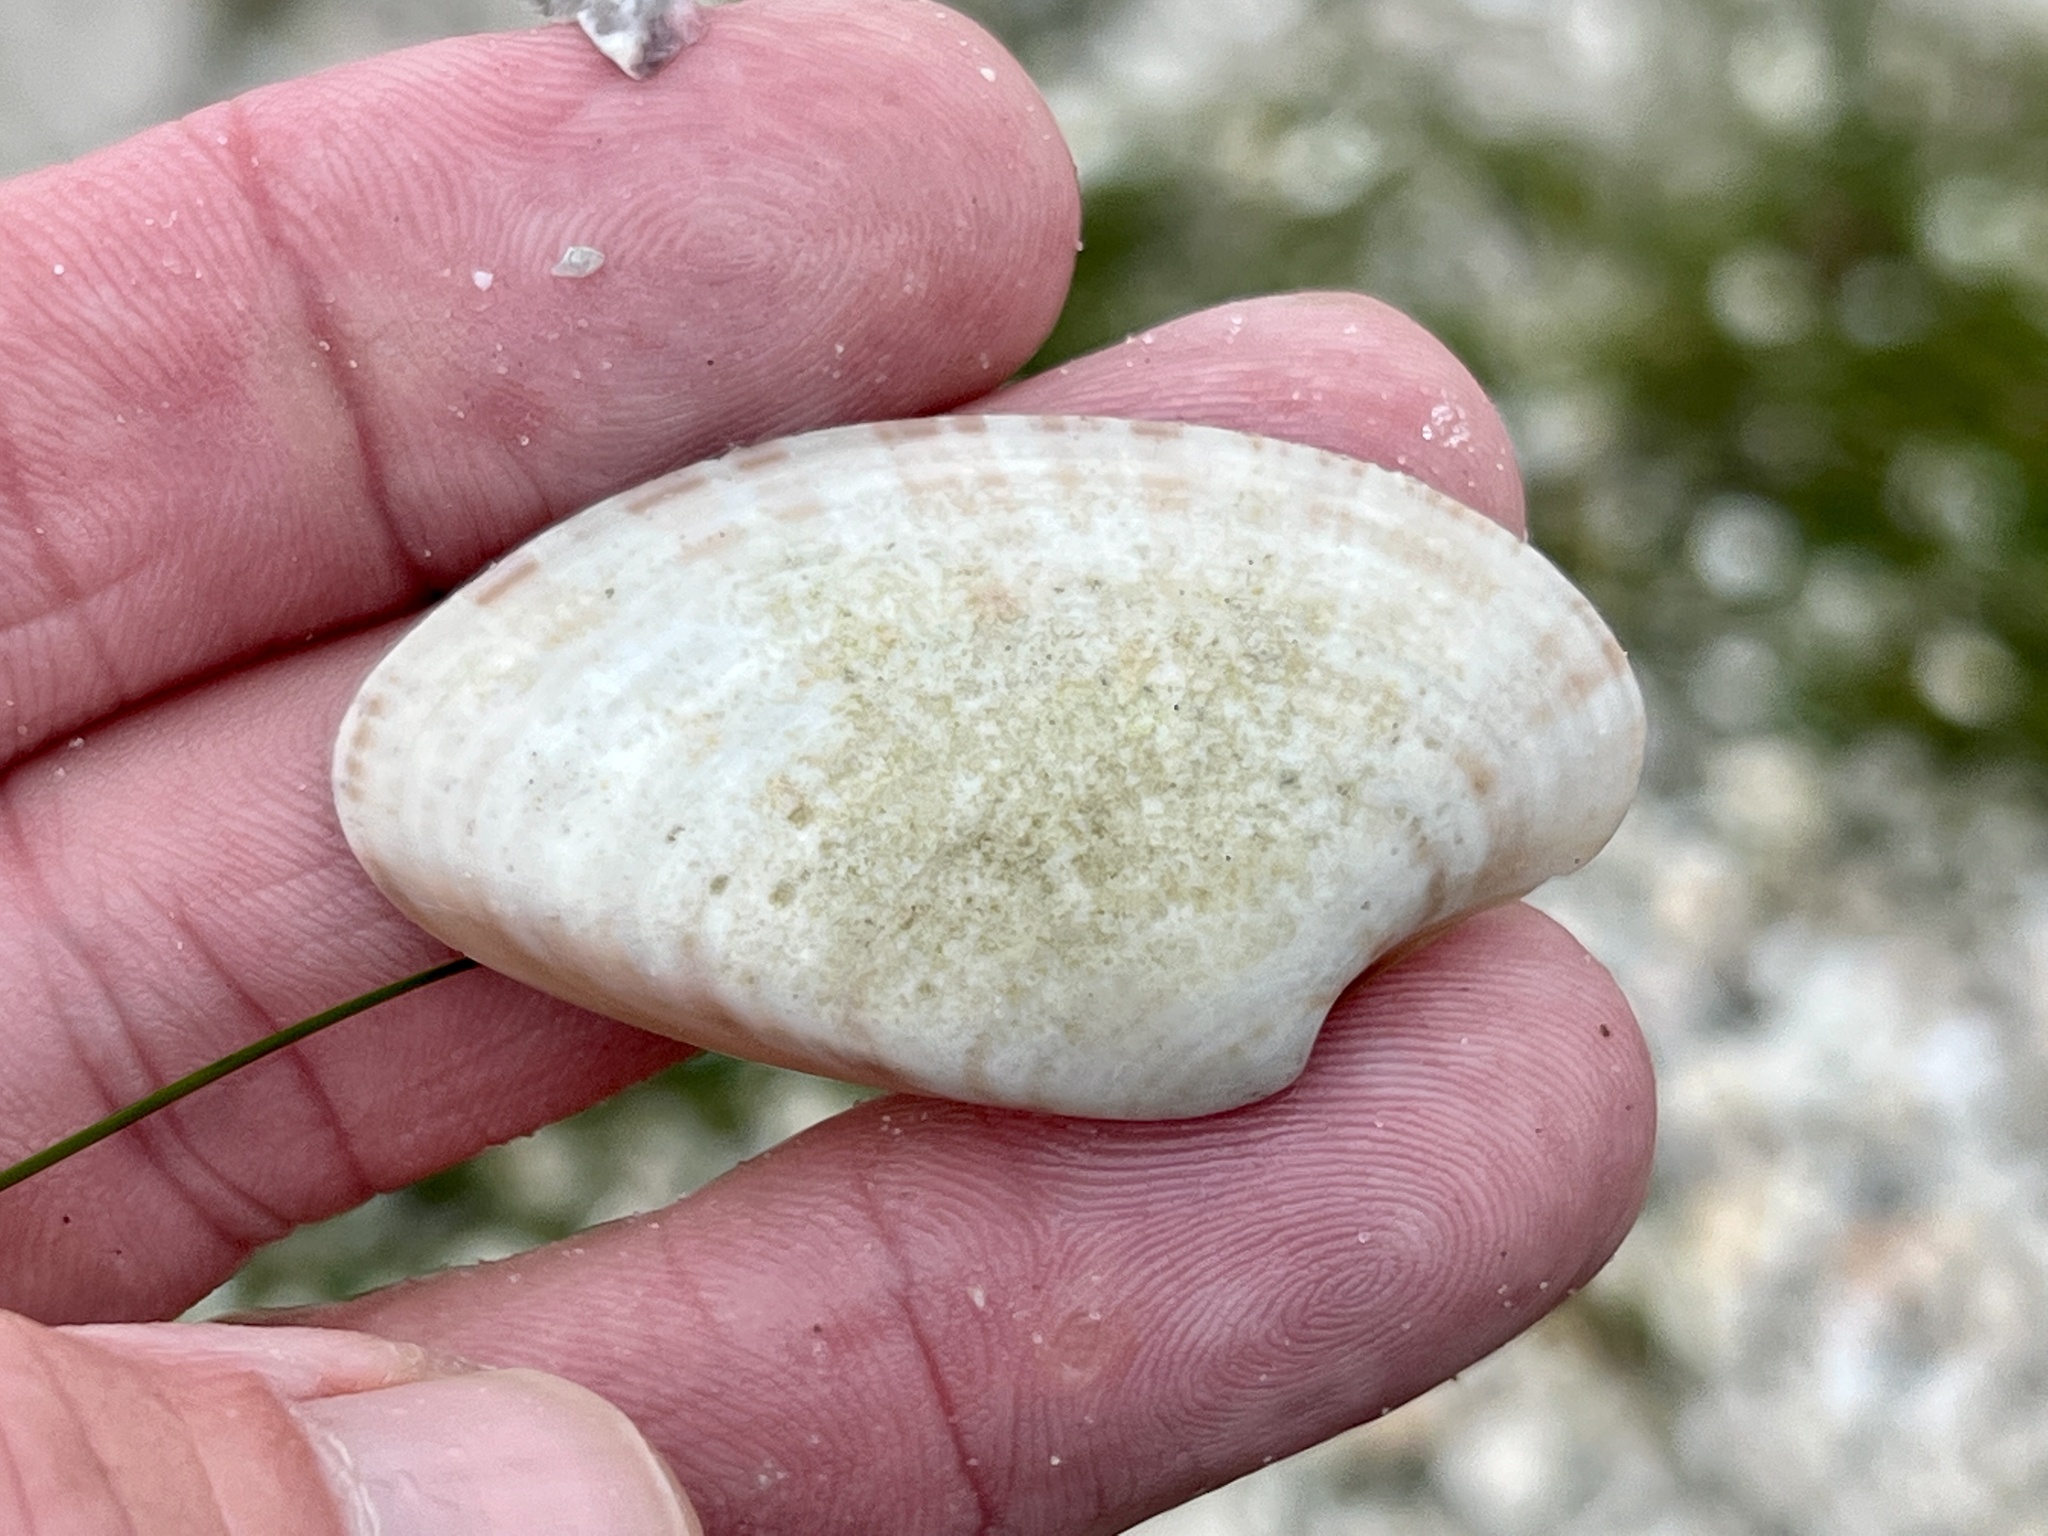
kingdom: Animalia
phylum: Mollusca
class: Bivalvia
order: Venerida
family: Veneridae
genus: Macrocallista
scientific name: Macrocallista nimbosa
